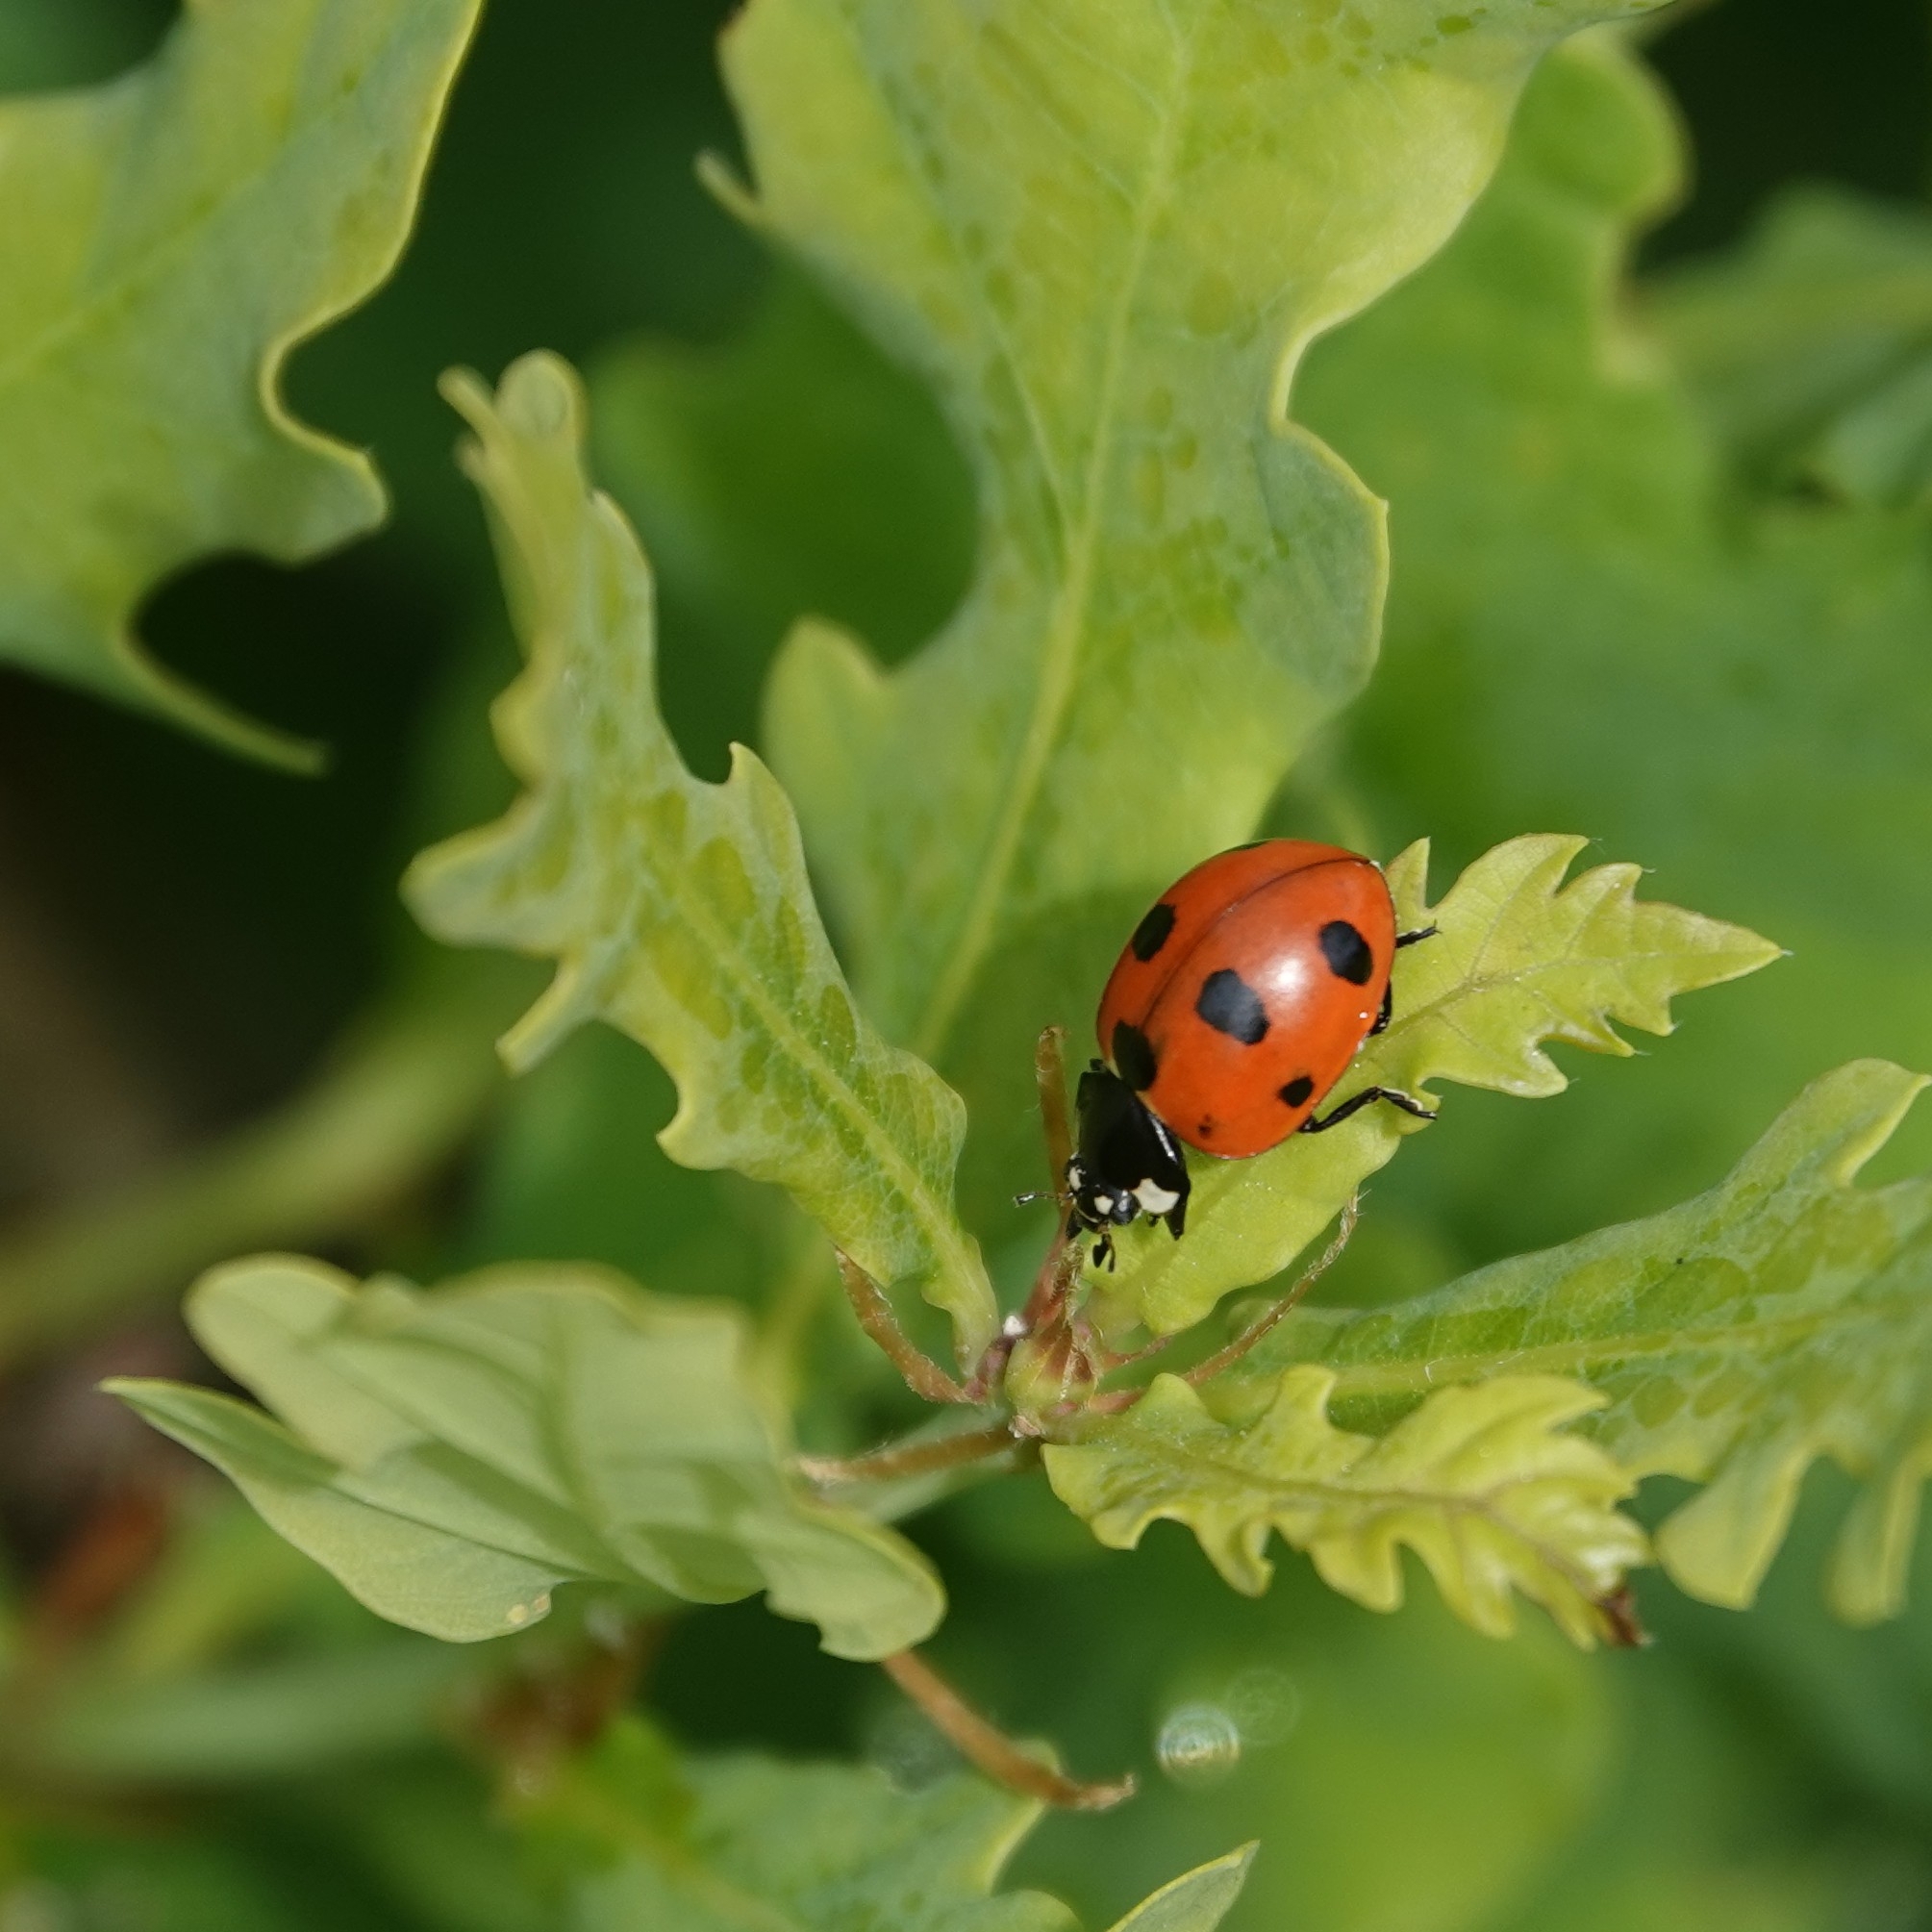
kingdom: Animalia
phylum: Arthropoda
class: Insecta
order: Coleoptera
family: Coccinellidae
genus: Coccinella
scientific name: Coccinella septempunctata
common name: Sevenspotted lady beetle
